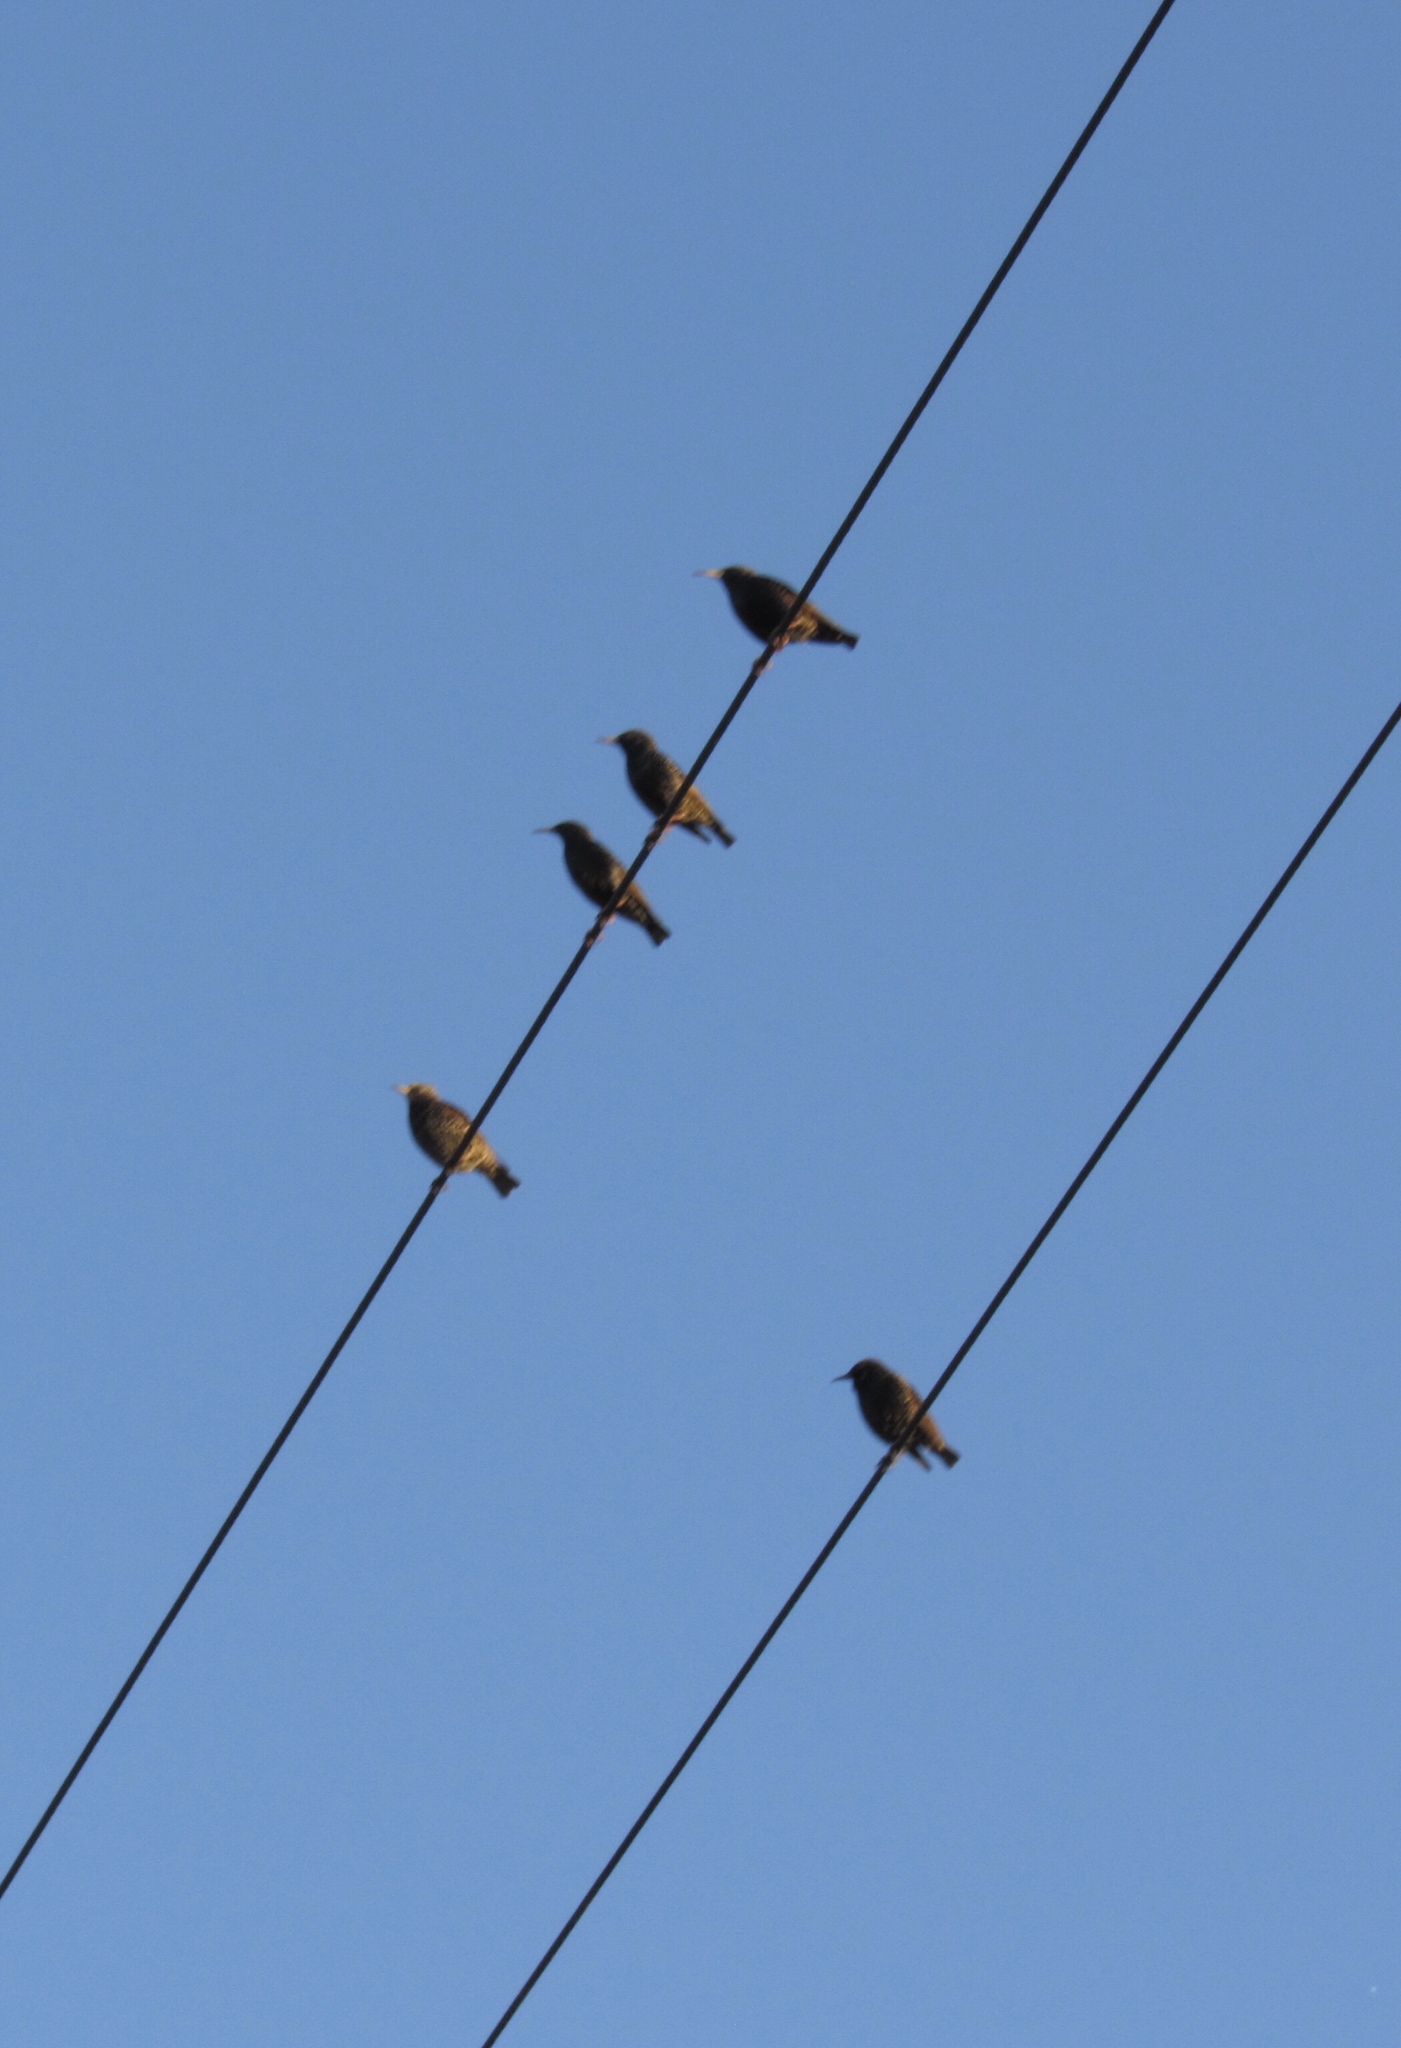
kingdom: Animalia
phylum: Chordata
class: Aves
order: Passeriformes
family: Sturnidae
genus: Sturnus
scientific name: Sturnus vulgaris
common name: Common starling
